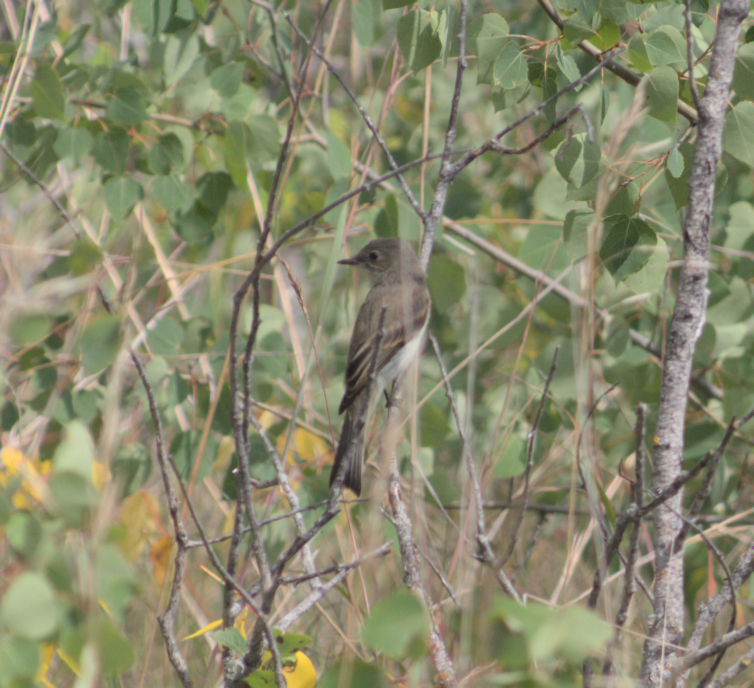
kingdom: Animalia
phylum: Chordata
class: Aves
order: Passeriformes
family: Tyrannidae
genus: Sayornis
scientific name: Sayornis phoebe
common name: Eastern phoebe
